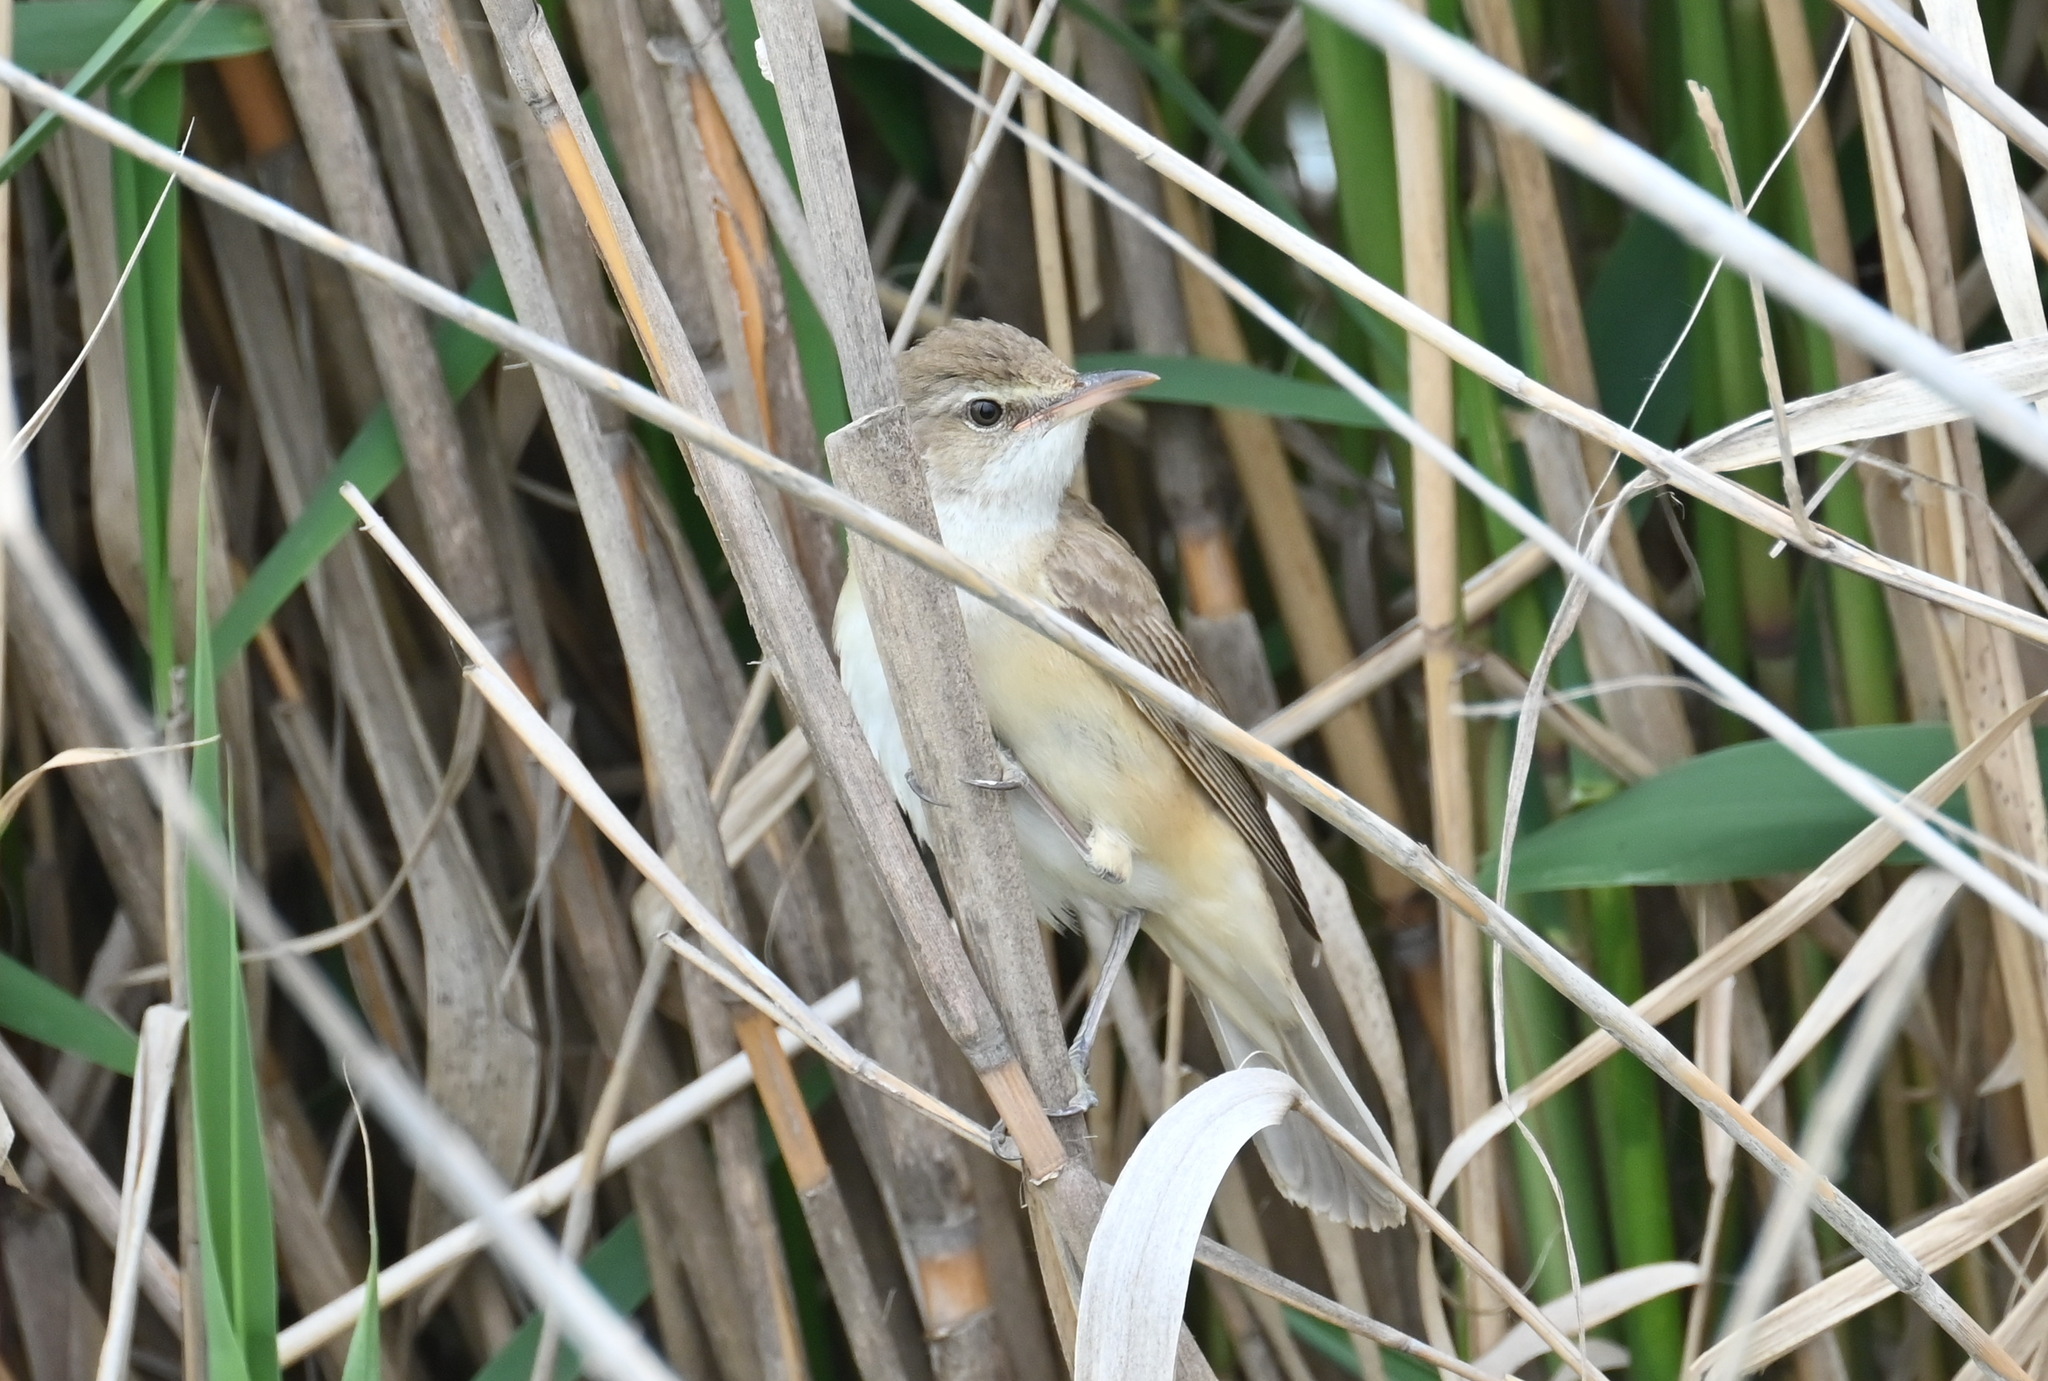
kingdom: Animalia
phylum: Chordata
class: Aves
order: Passeriformes
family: Acrocephalidae
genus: Acrocephalus
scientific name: Acrocephalus arundinaceus
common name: Great reed warbler
